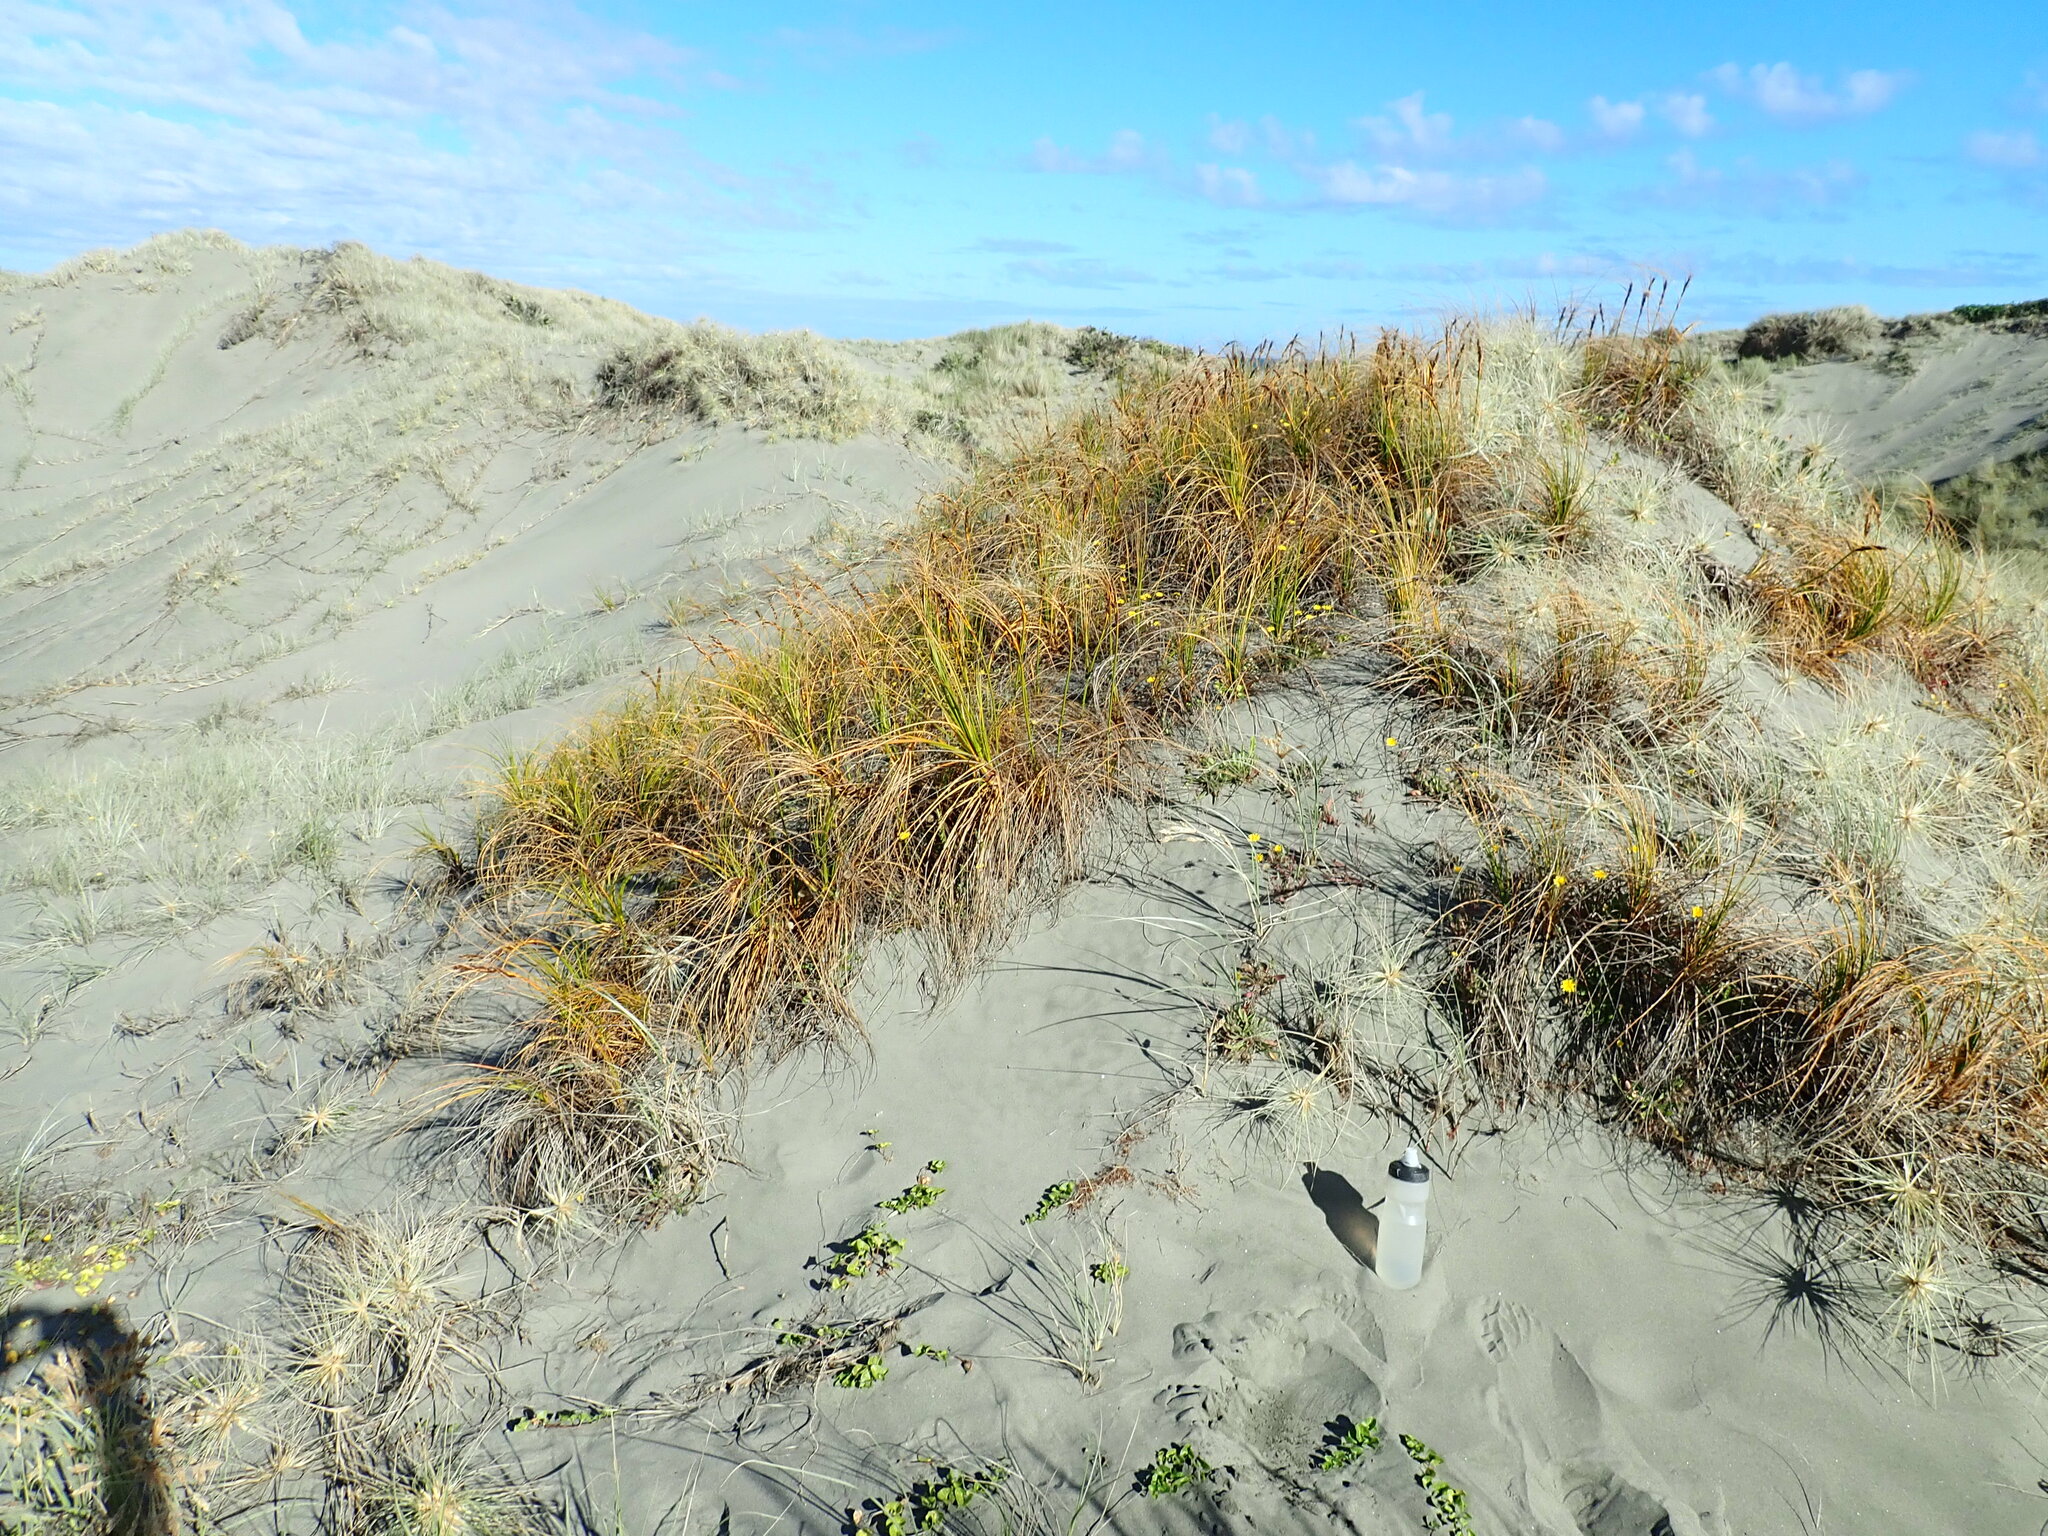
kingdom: Plantae
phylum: Tracheophyta
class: Liliopsida
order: Poales
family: Cyperaceae
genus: Ficinia
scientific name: Ficinia spiralis
